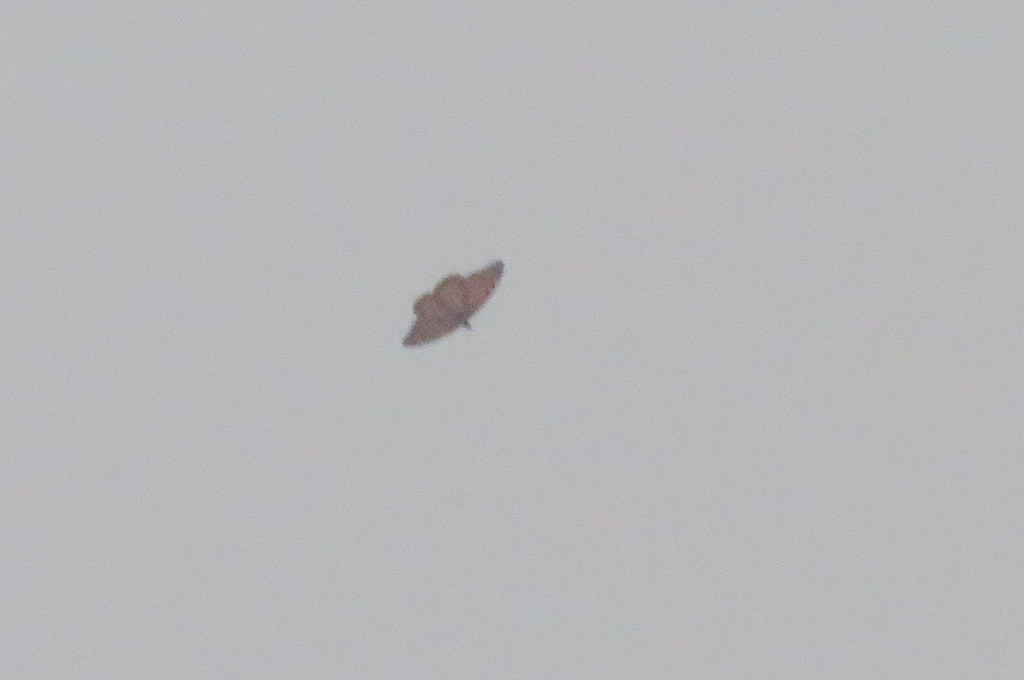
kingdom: Animalia
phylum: Arthropoda
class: Insecta
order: Lepidoptera
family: Nymphalidae
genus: Danaus
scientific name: Danaus erippus
